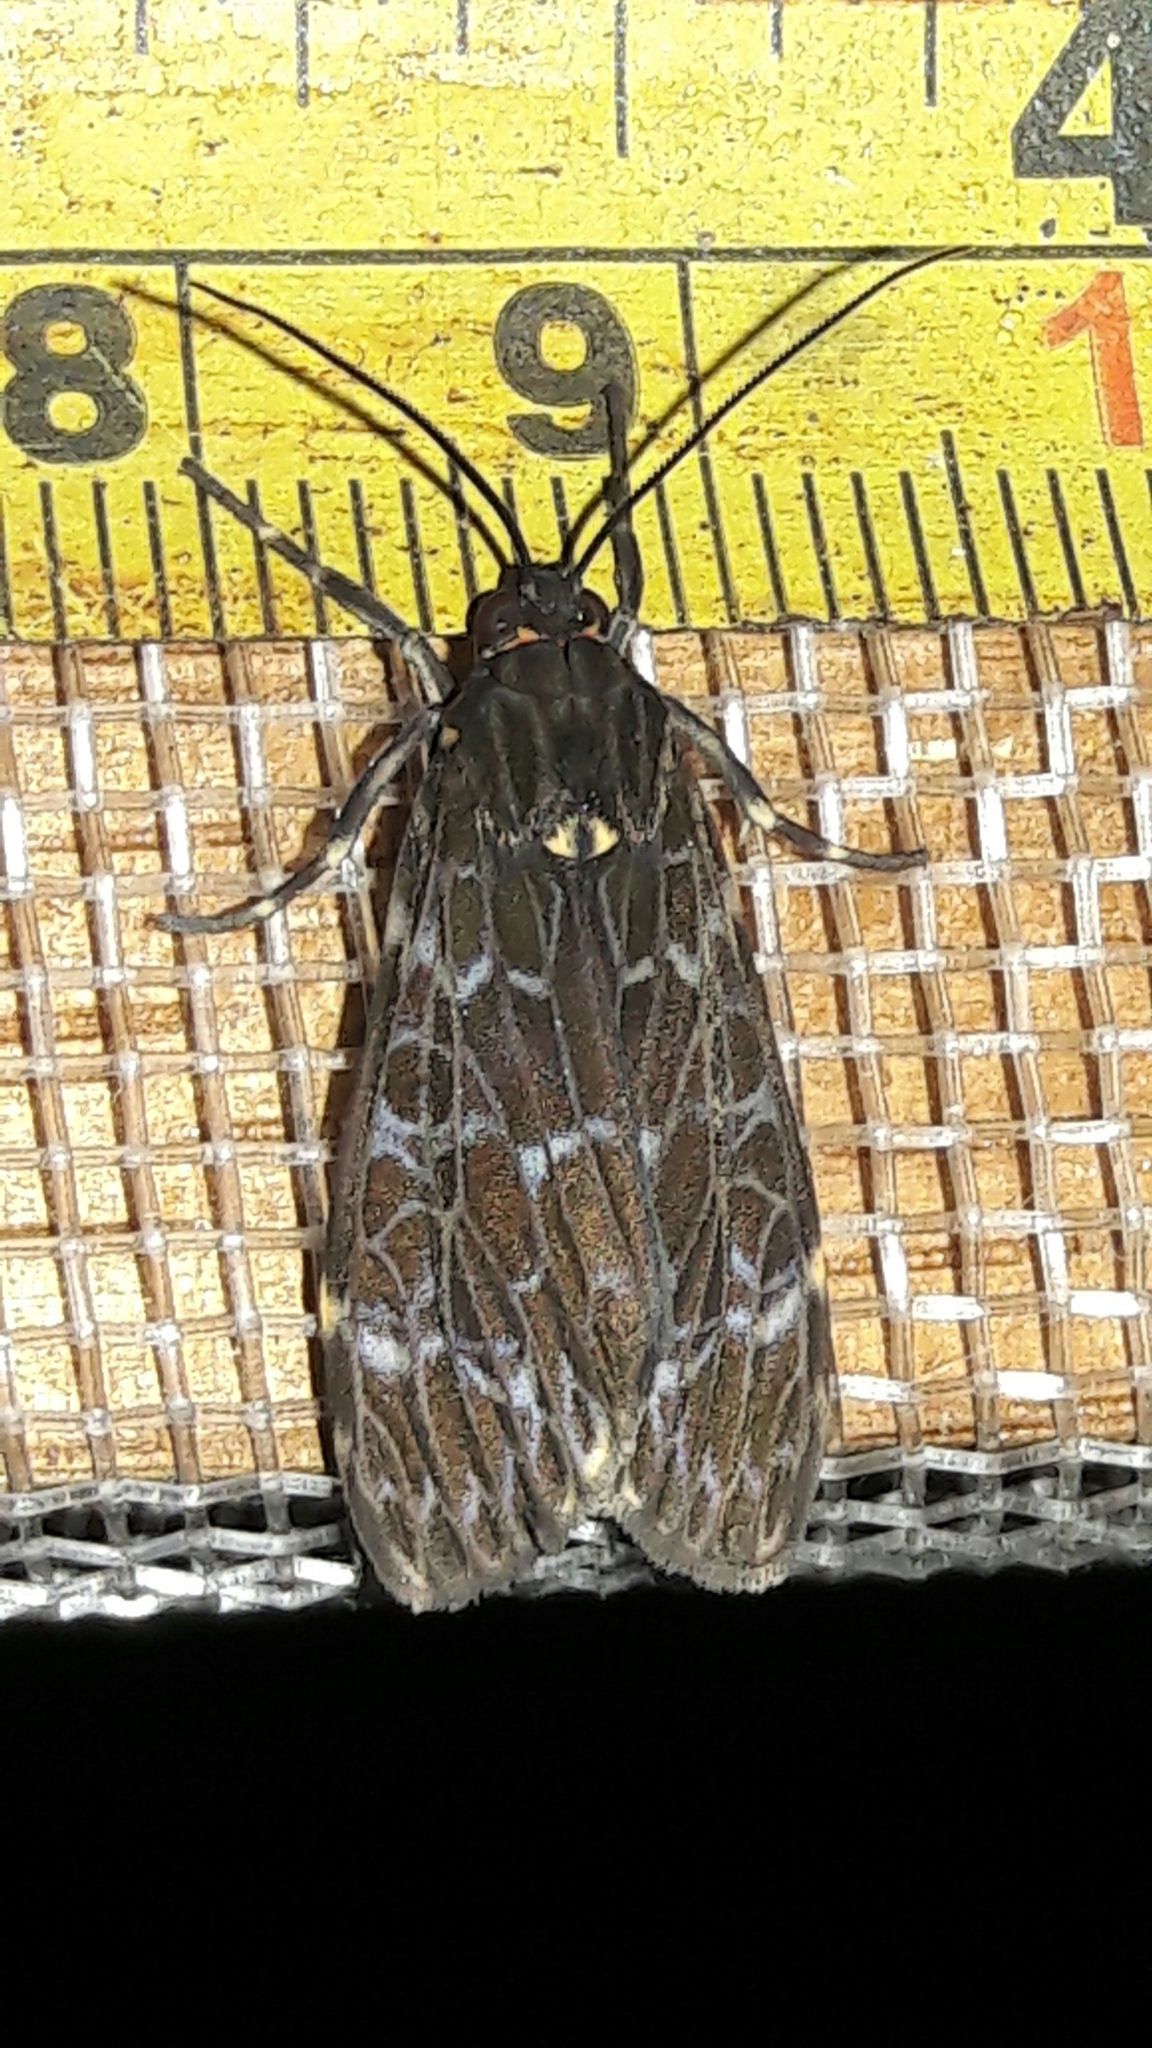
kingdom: Animalia
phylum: Arthropoda
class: Insecta
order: Lepidoptera
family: Erebidae
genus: Eucereon
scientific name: Eucereon sylvius
